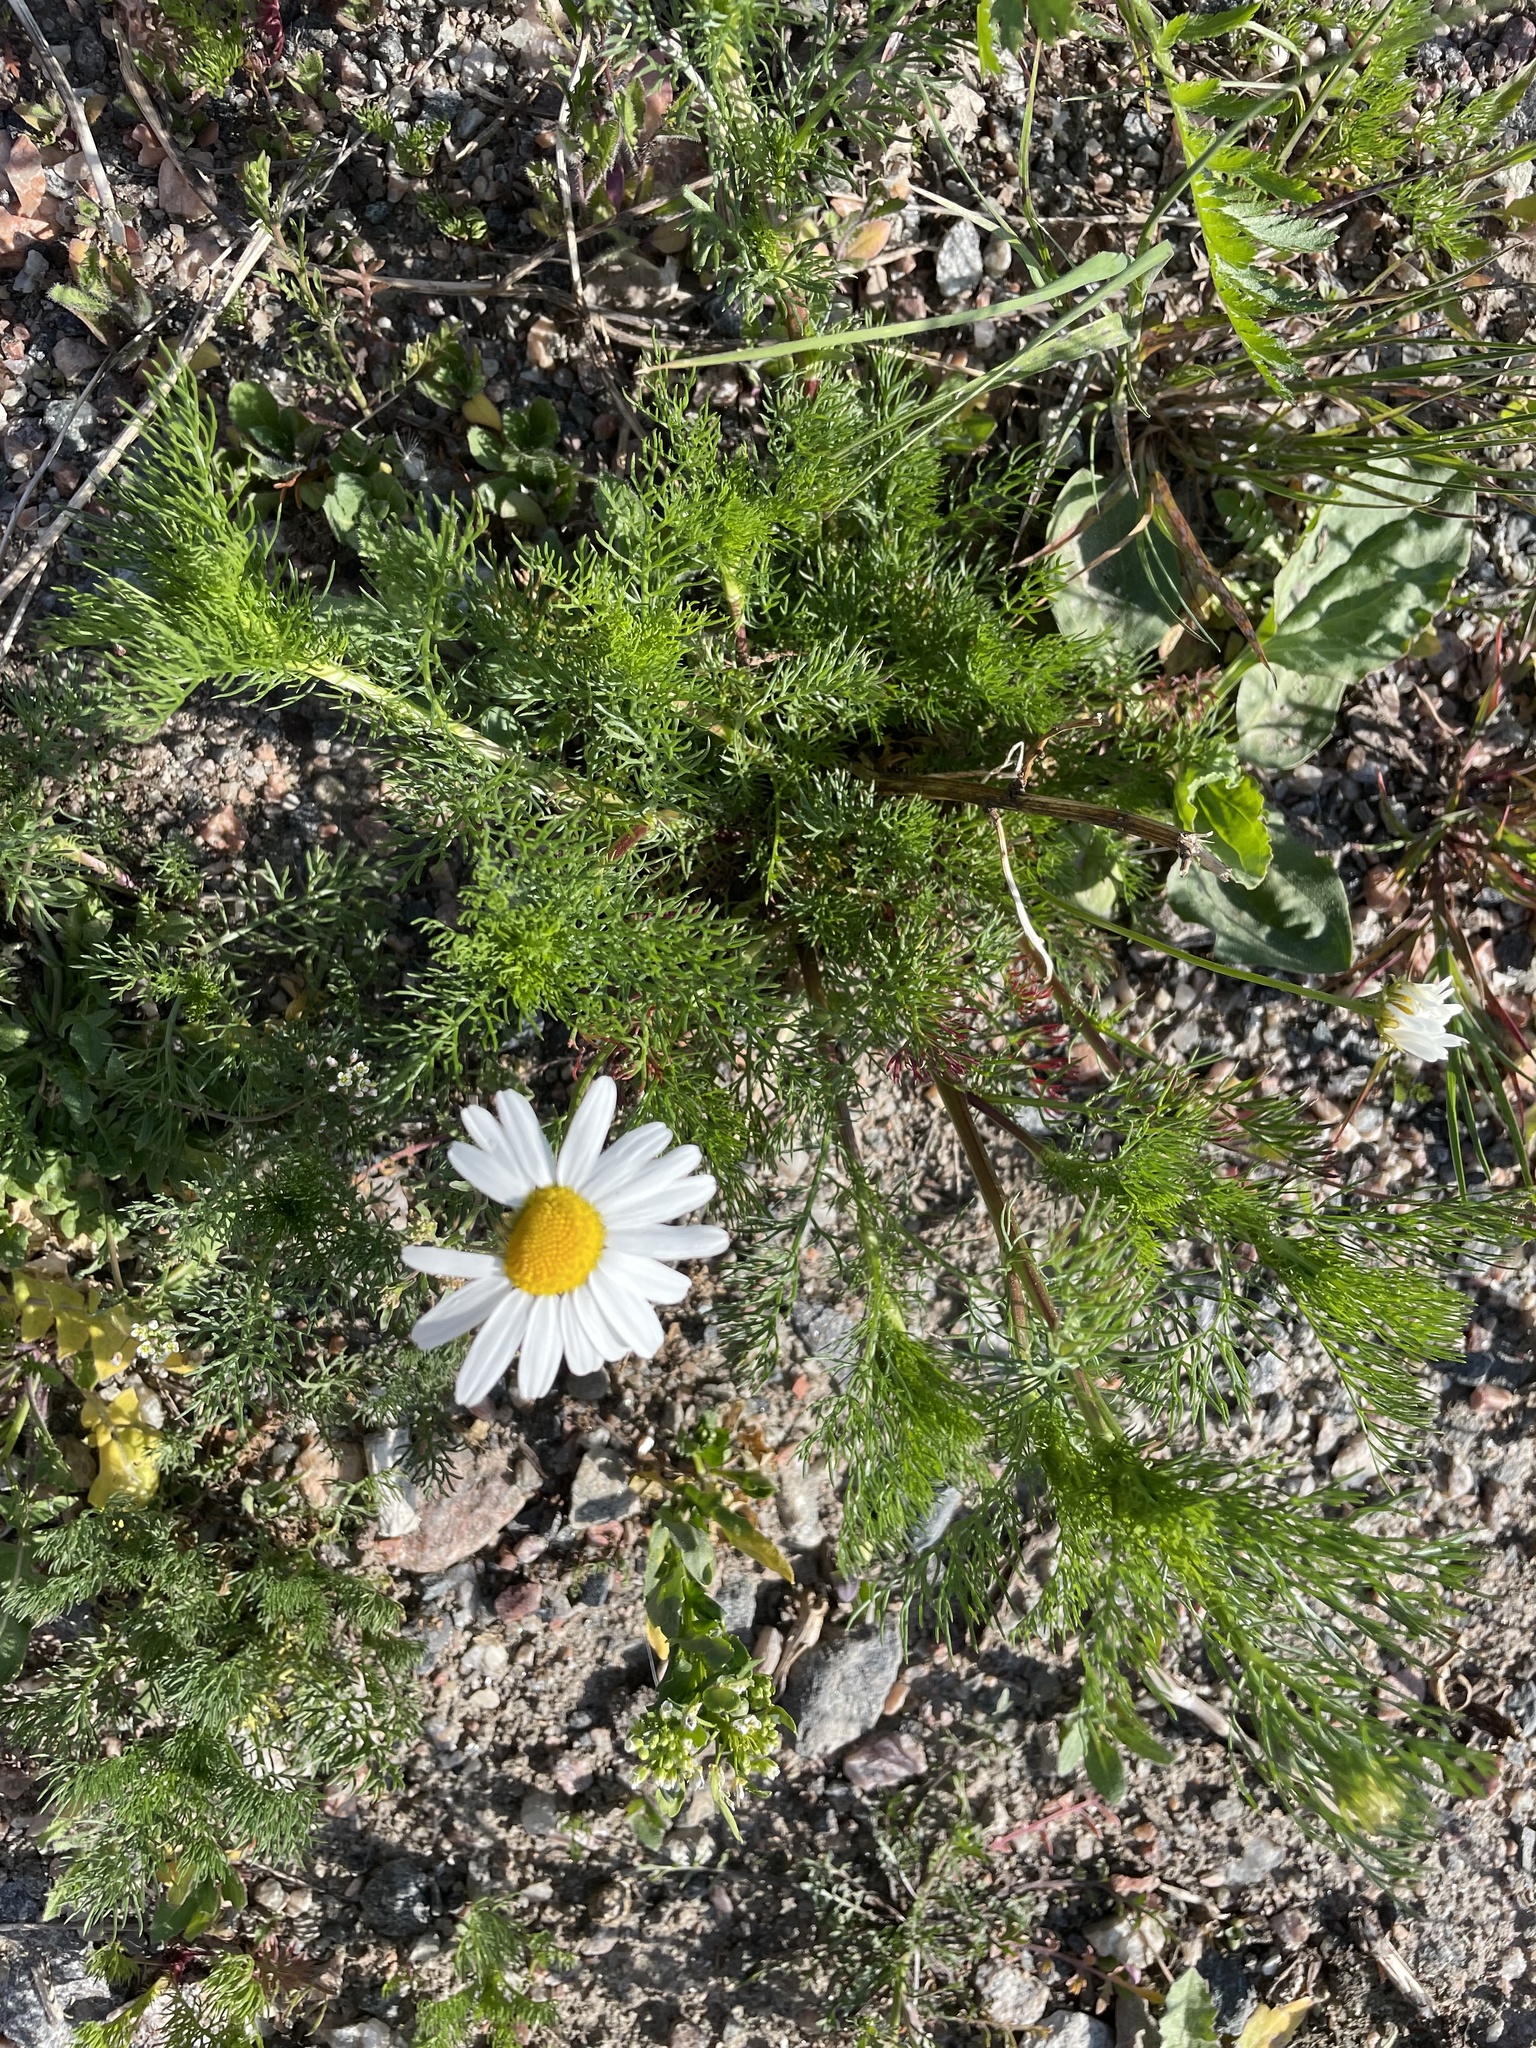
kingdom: Plantae
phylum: Tracheophyta
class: Magnoliopsida
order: Asterales
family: Asteraceae
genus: Tripleurospermum
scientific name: Tripleurospermum inodorum
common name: Scentless mayweed
